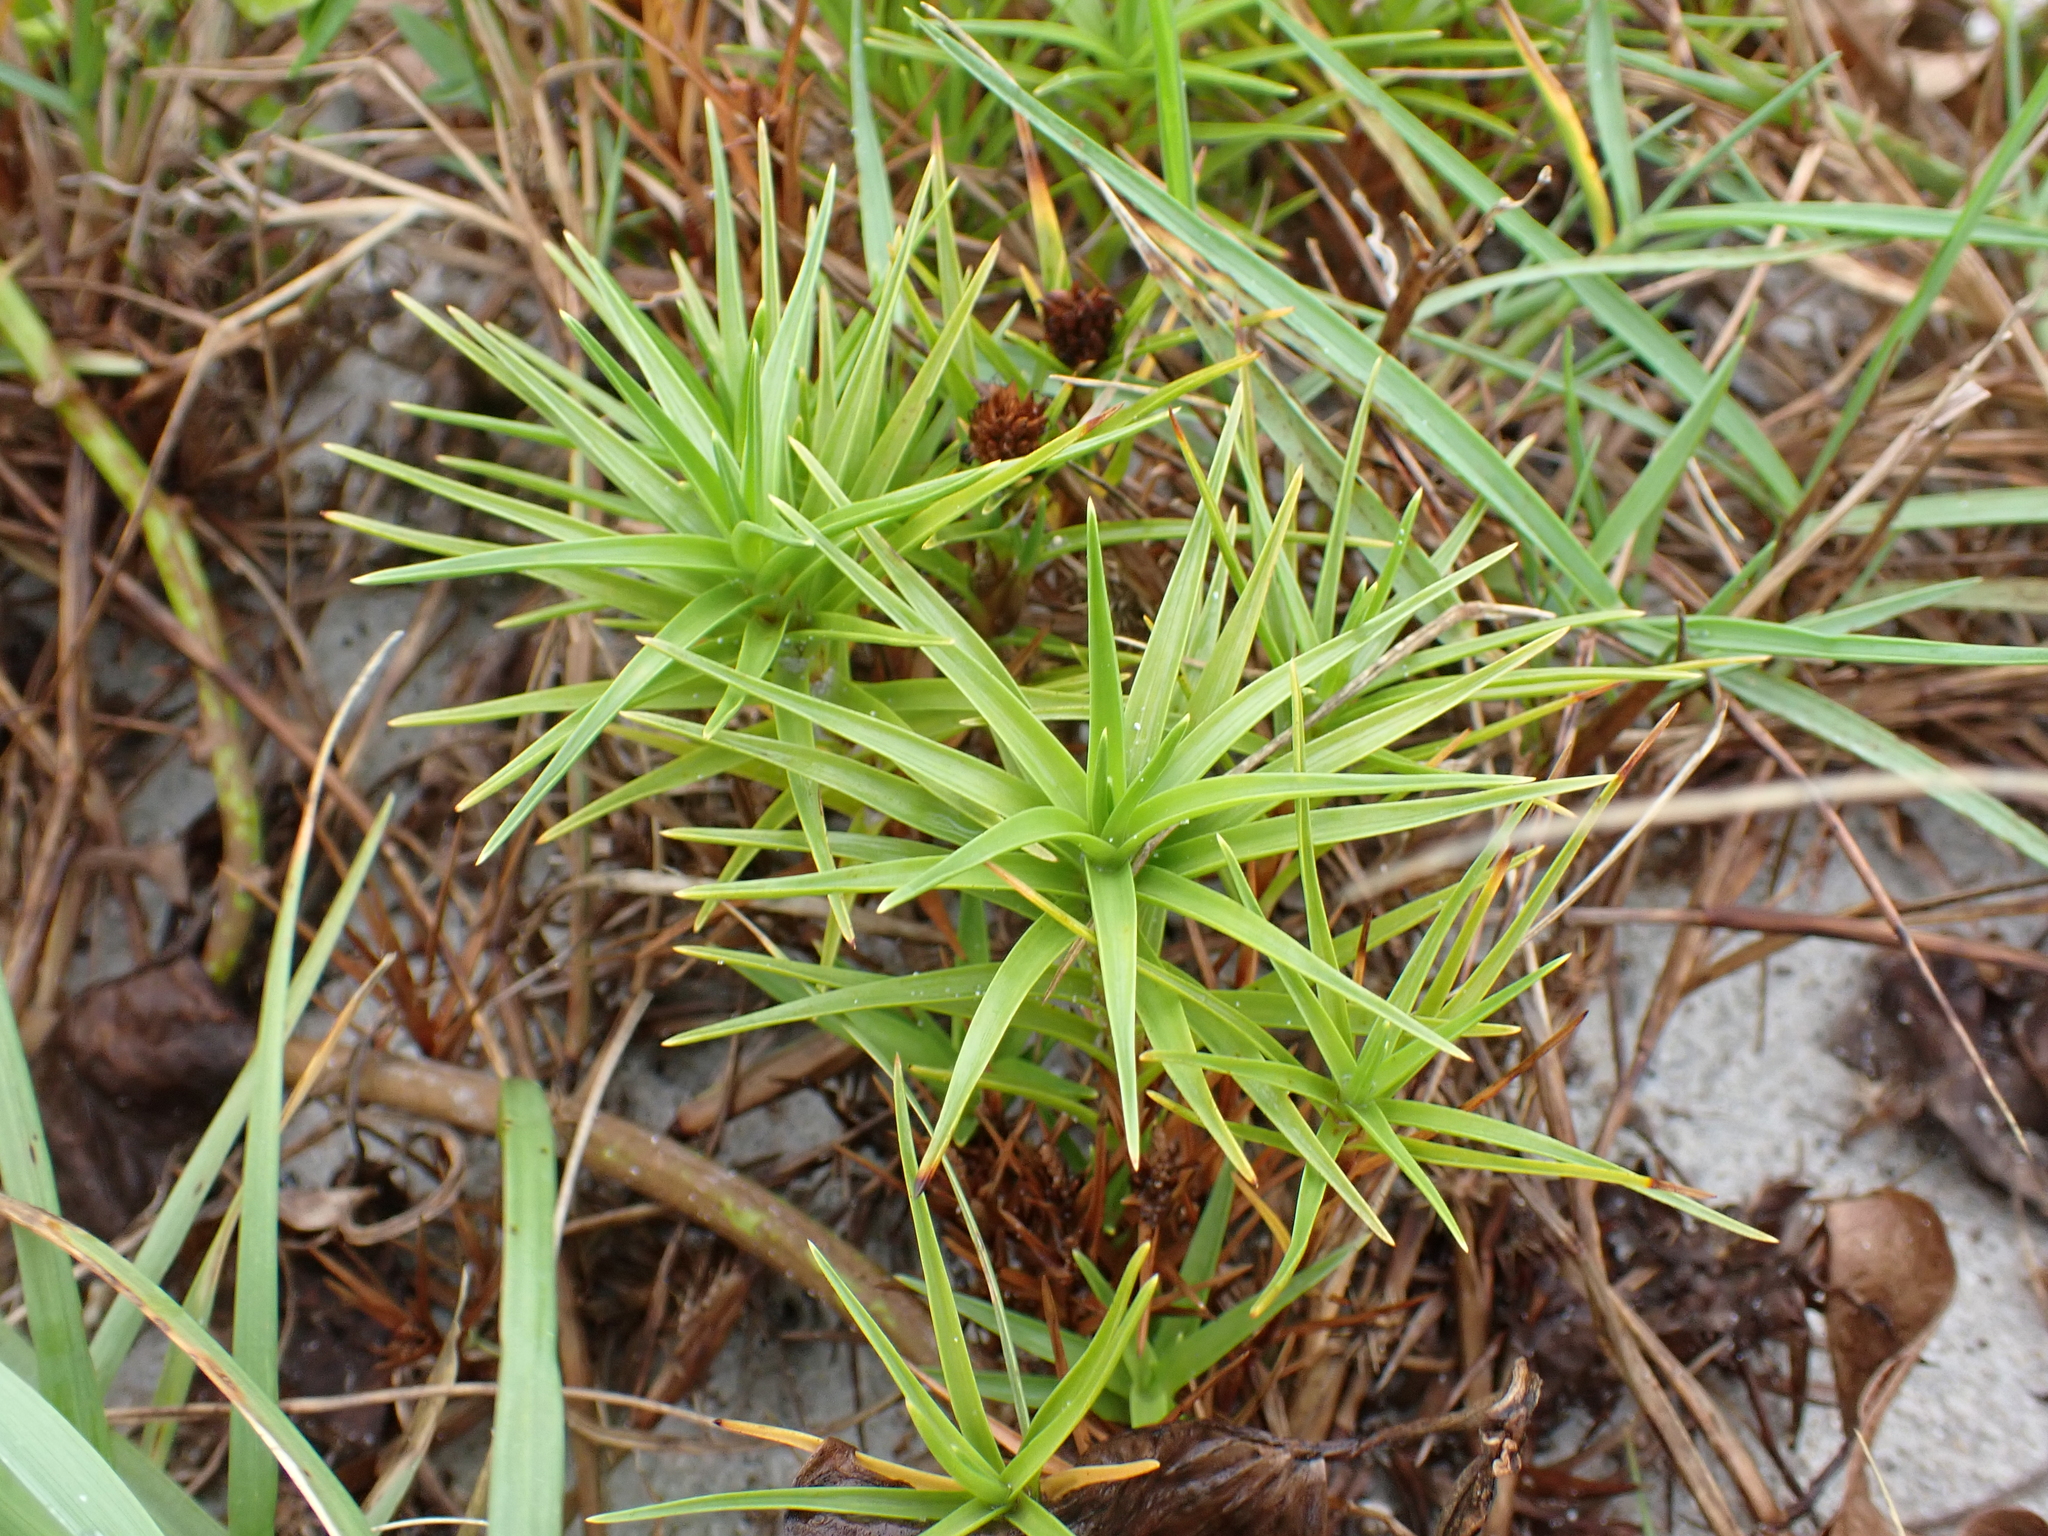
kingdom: Plantae
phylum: Tracheophyta
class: Liliopsida
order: Poales
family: Cyperaceae
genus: Cyperus
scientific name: Cyperus pedunculatus
